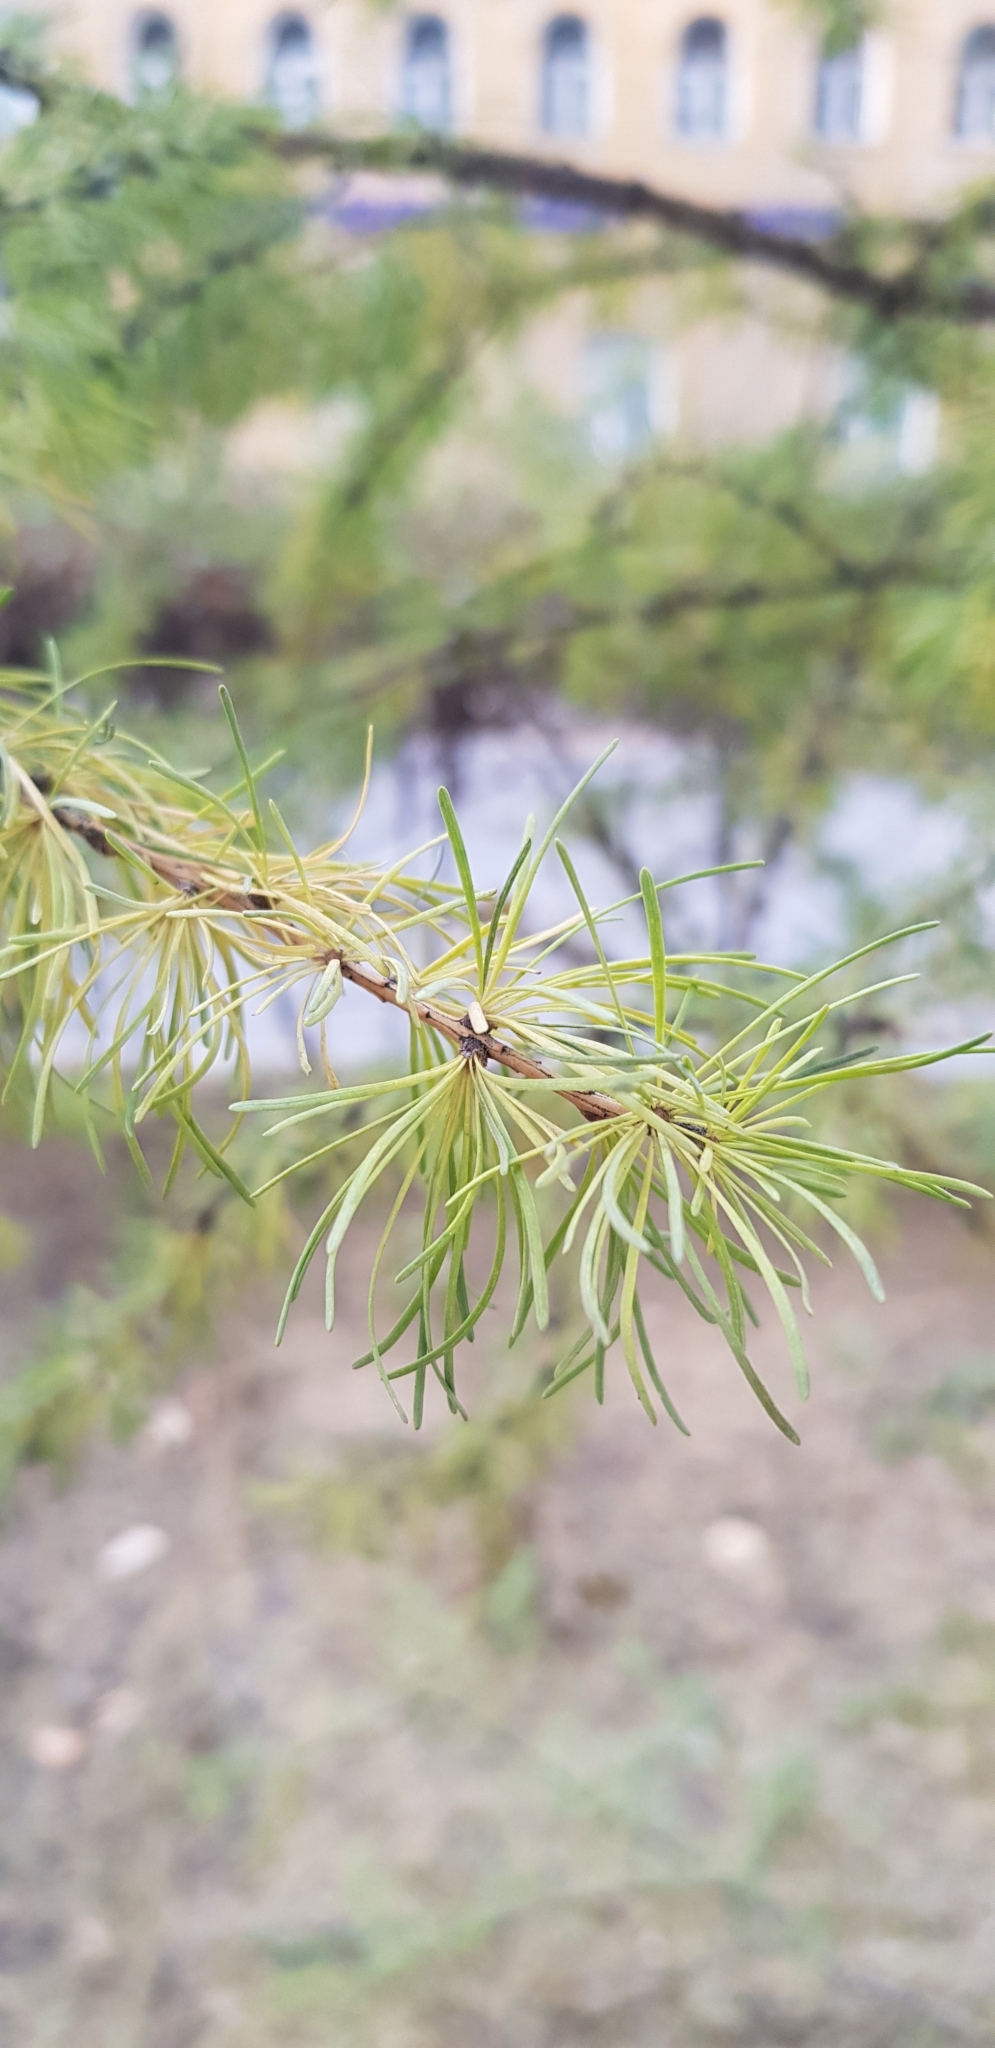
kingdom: Plantae
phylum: Tracheophyta
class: Pinopsida
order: Pinales
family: Pinaceae
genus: Larix
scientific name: Larix sibirica
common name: Siberian larch
